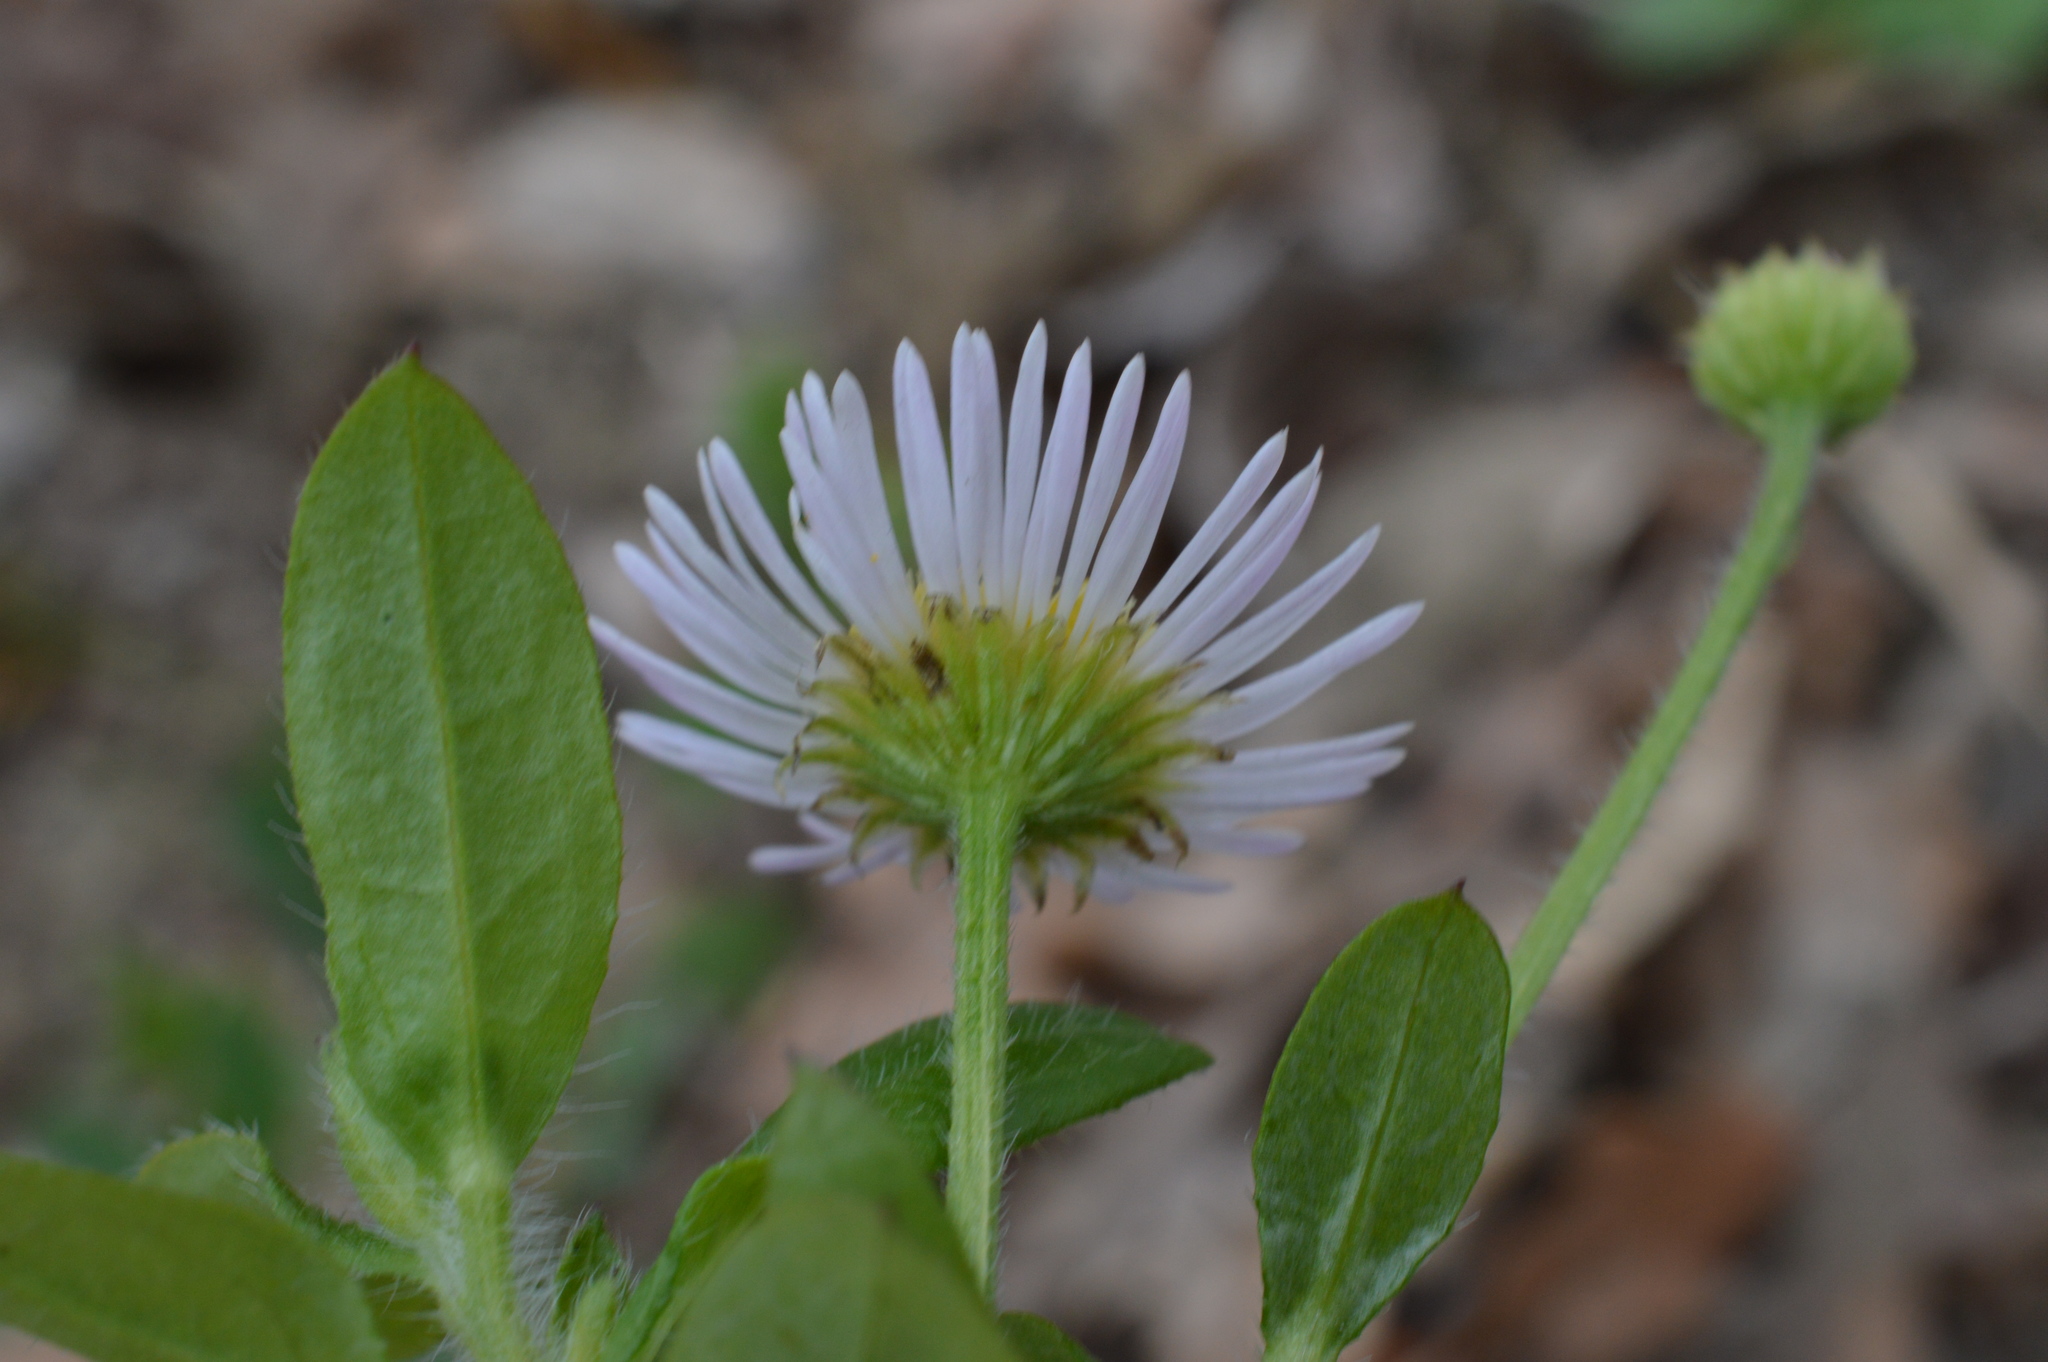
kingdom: Plantae
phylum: Tracheophyta
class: Magnoliopsida
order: Asterales
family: Asteraceae
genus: Erigeron
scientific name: Erigeron annuus
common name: Tall fleabane
